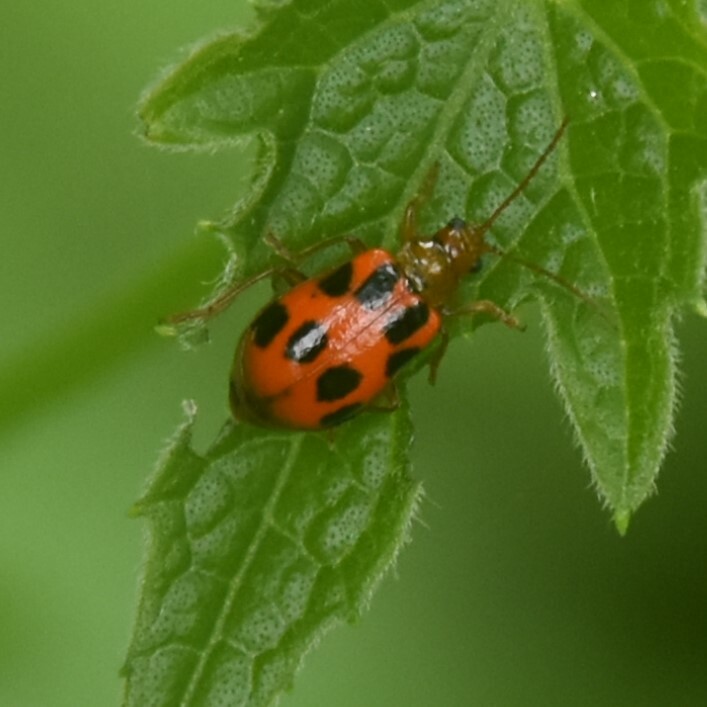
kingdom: Animalia
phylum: Arthropoda
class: Insecta
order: Coleoptera
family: Chrysomelidae
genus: Paridea
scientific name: Paridea
